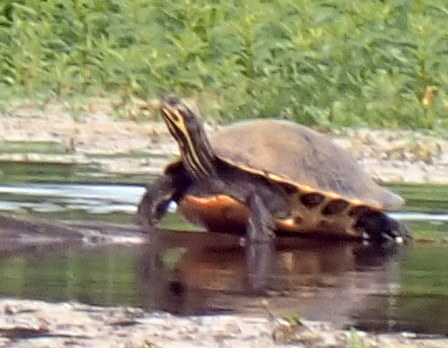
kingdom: Animalia
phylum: Chordata
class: Testudines
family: Emydidae
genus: Pseudemys
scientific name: Pseudemys concinna
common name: Eastern river cooter
